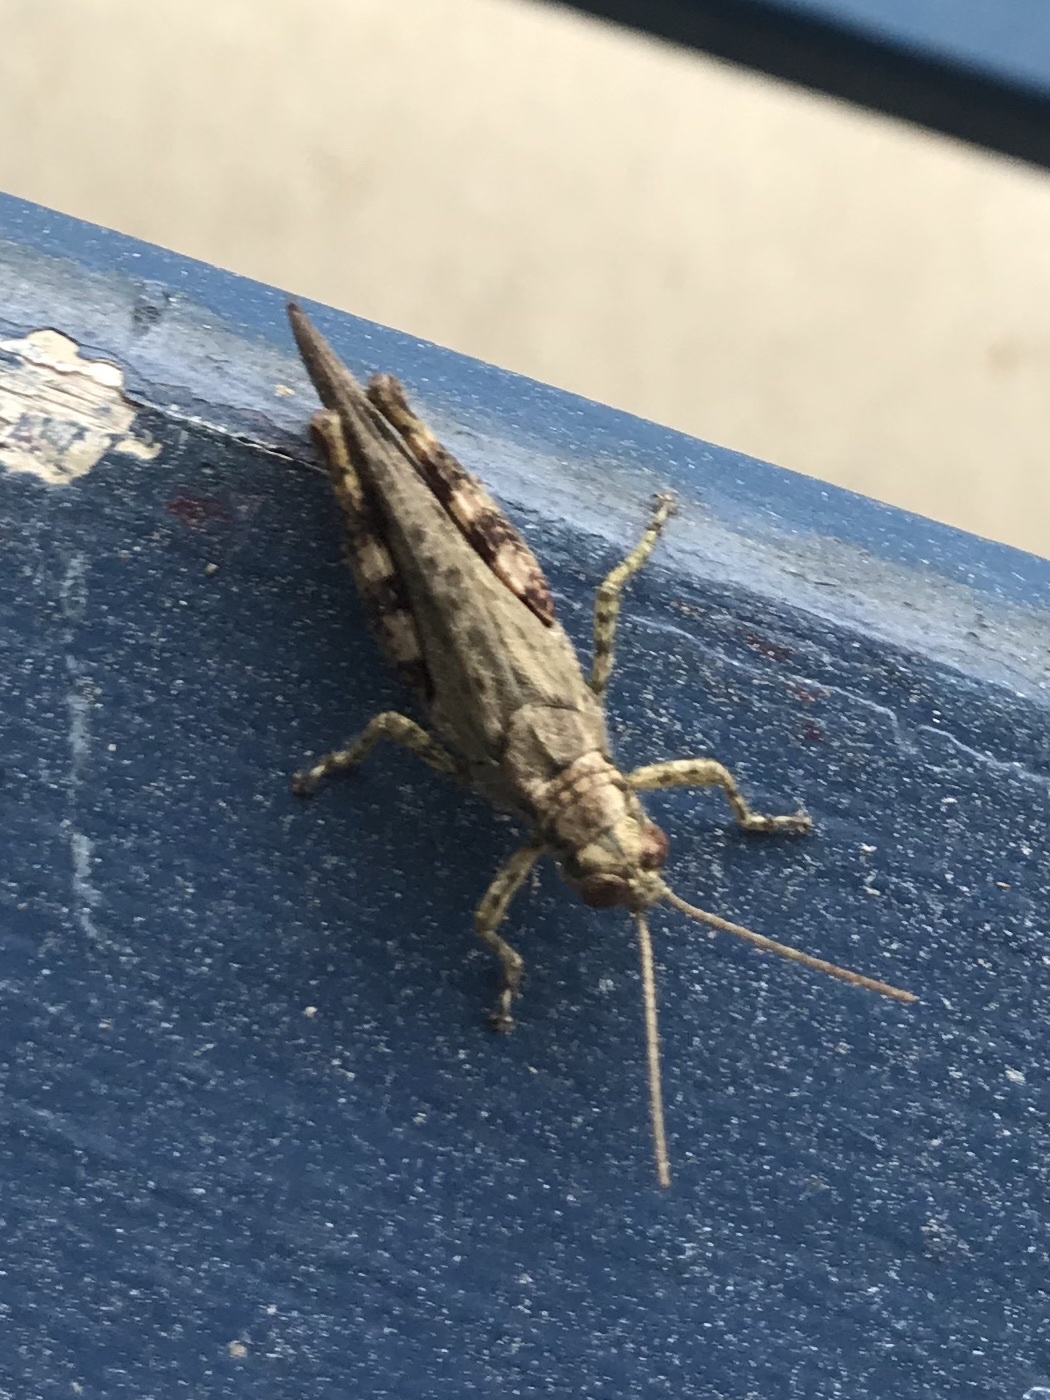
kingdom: Animalia
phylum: Arthropoda
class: Insecta
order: Orthoptera
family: Acrididae
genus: Melanoplus
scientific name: Melanoplus punctulatus
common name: Pine-tree spur-throat grasshopper
